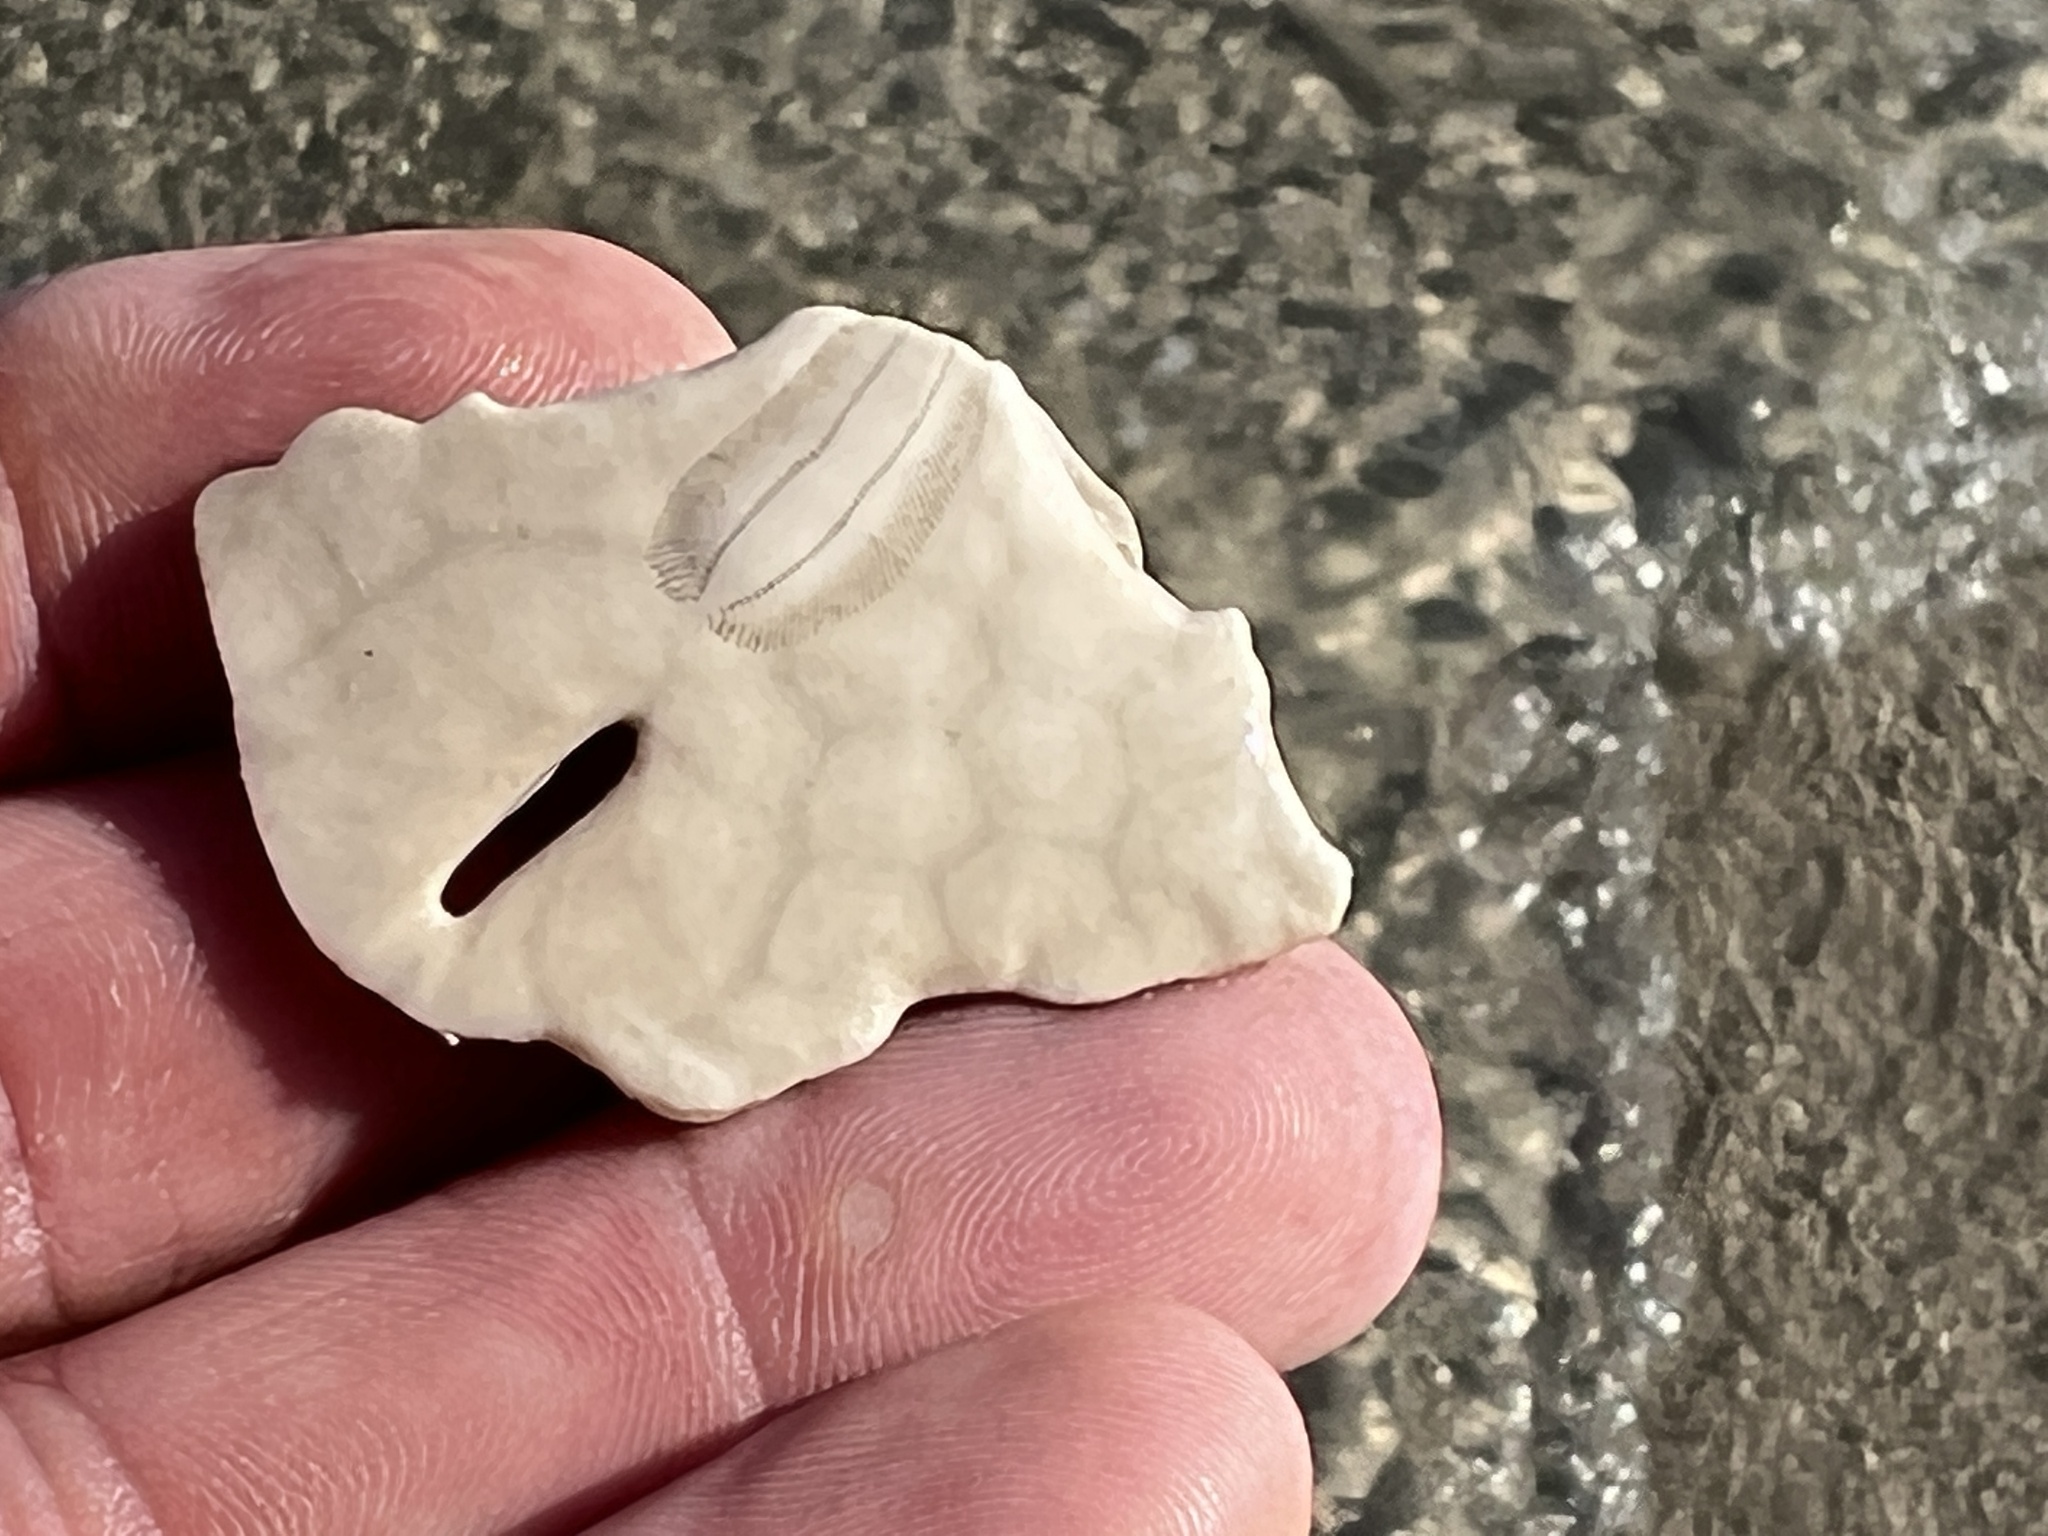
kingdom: Animalia
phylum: Echinodermata
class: Echinoidea
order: Echinolampadacea
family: Mellitidae
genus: Mellita
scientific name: Mellita quinquiesperforata
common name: Sand dollar
